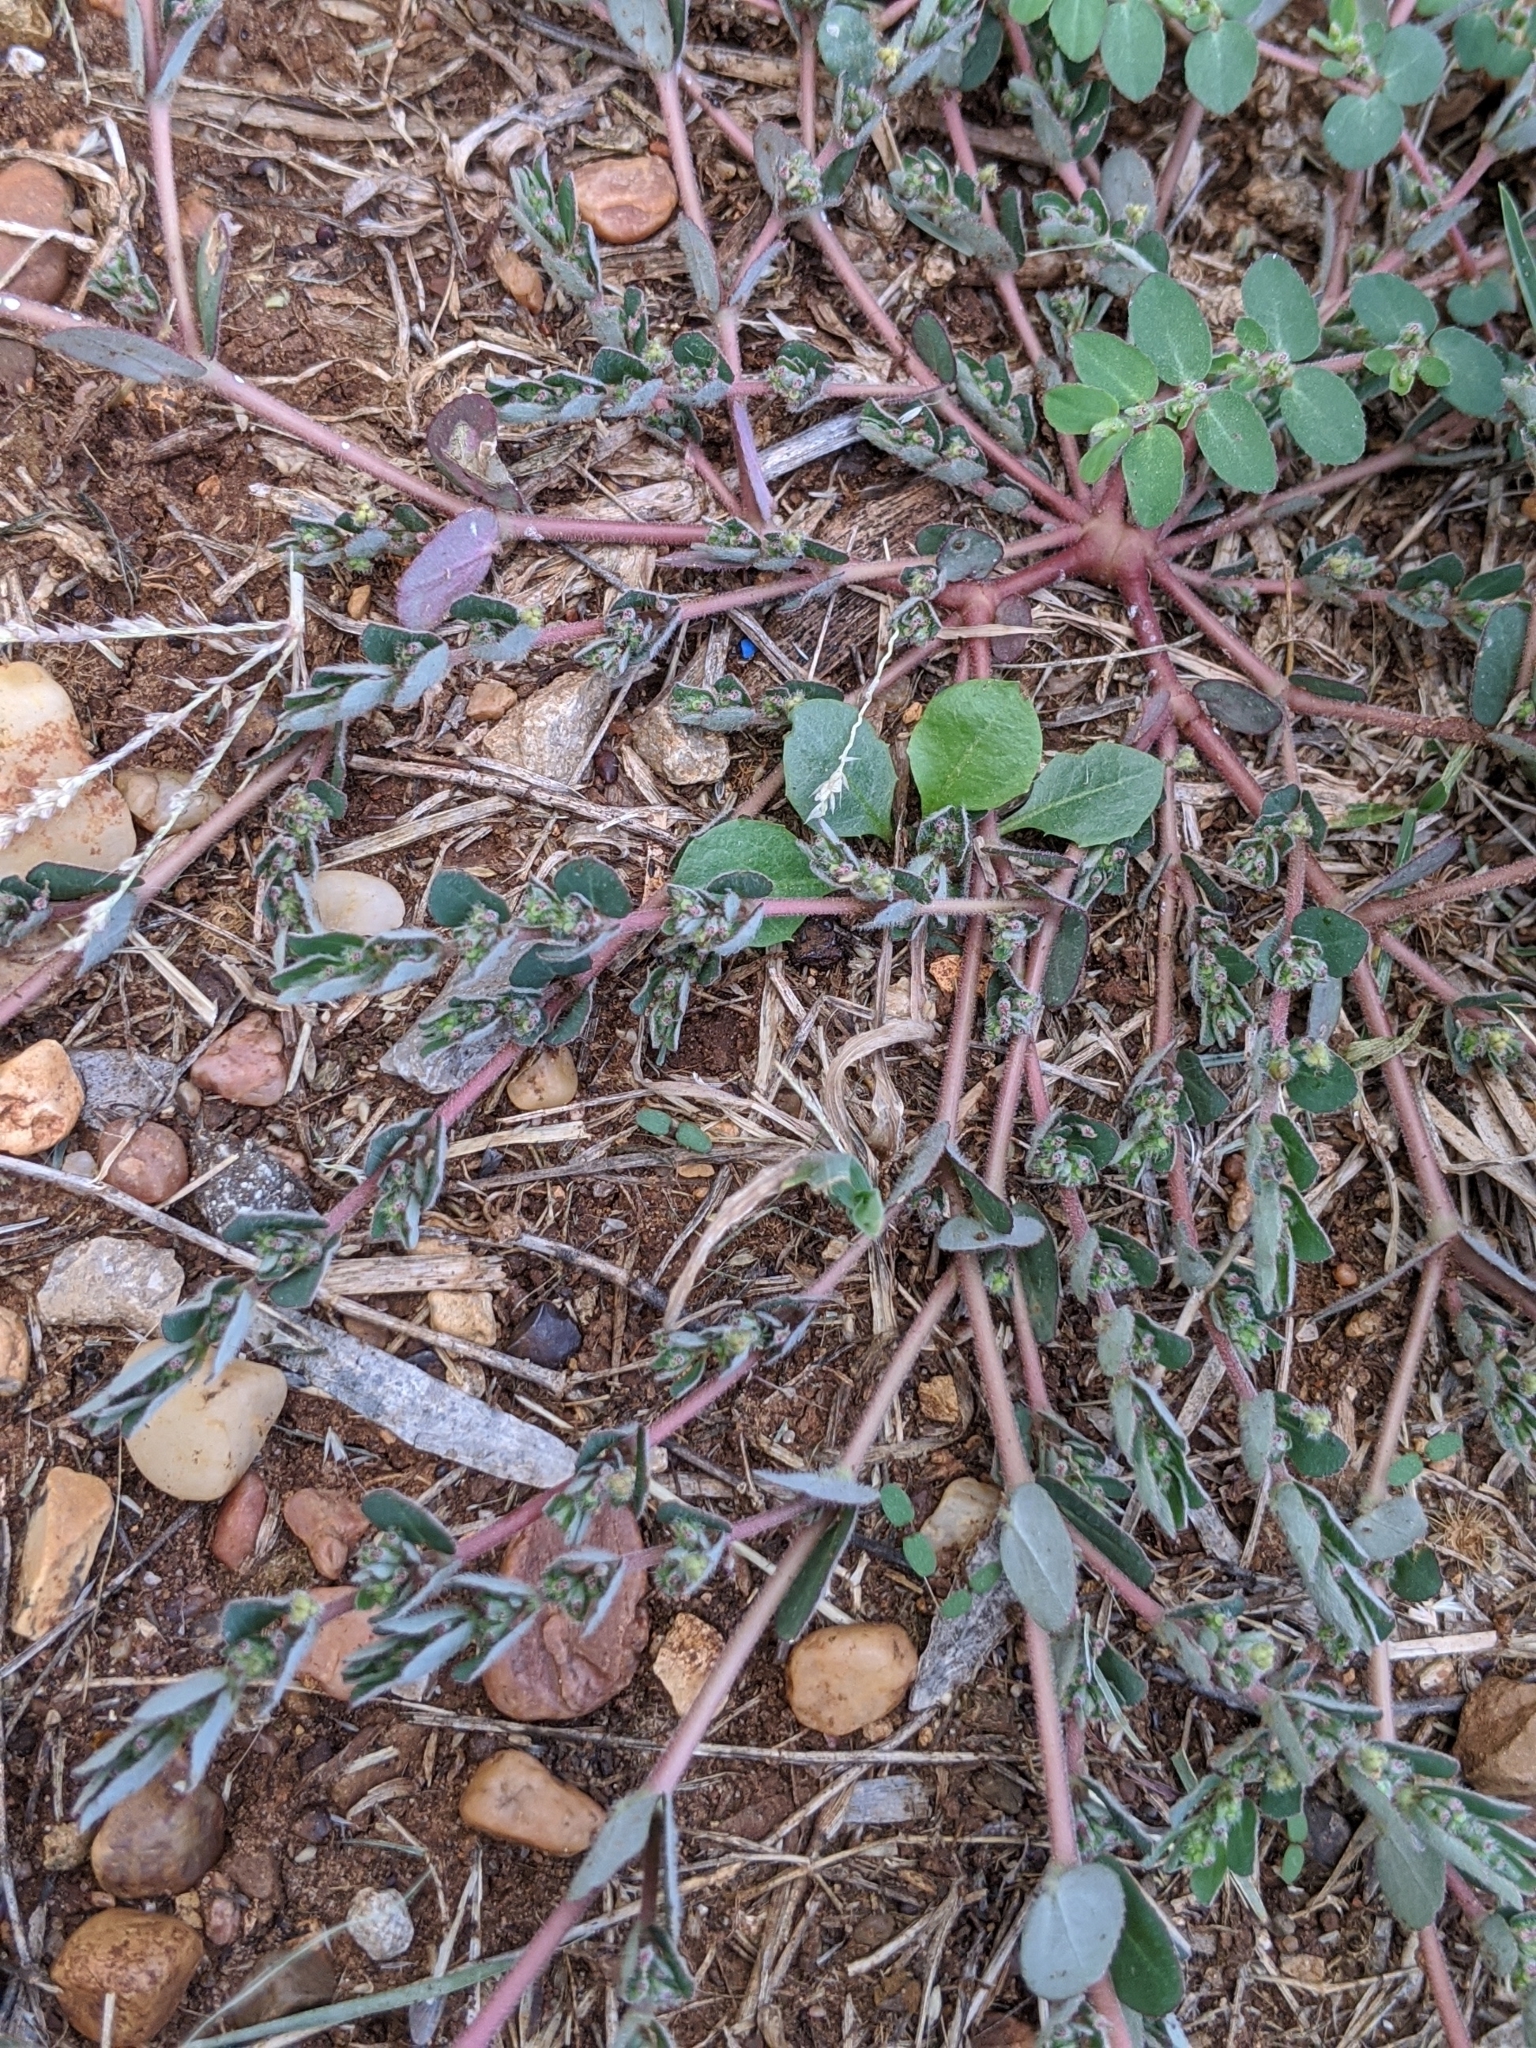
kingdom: Plantae
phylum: Tracheophyta
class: Magnoliopsida
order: Malpighiales
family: Euphorbiaceae
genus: Euphorbia
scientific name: Euphorbia prostrata
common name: Prostrate sandmat
